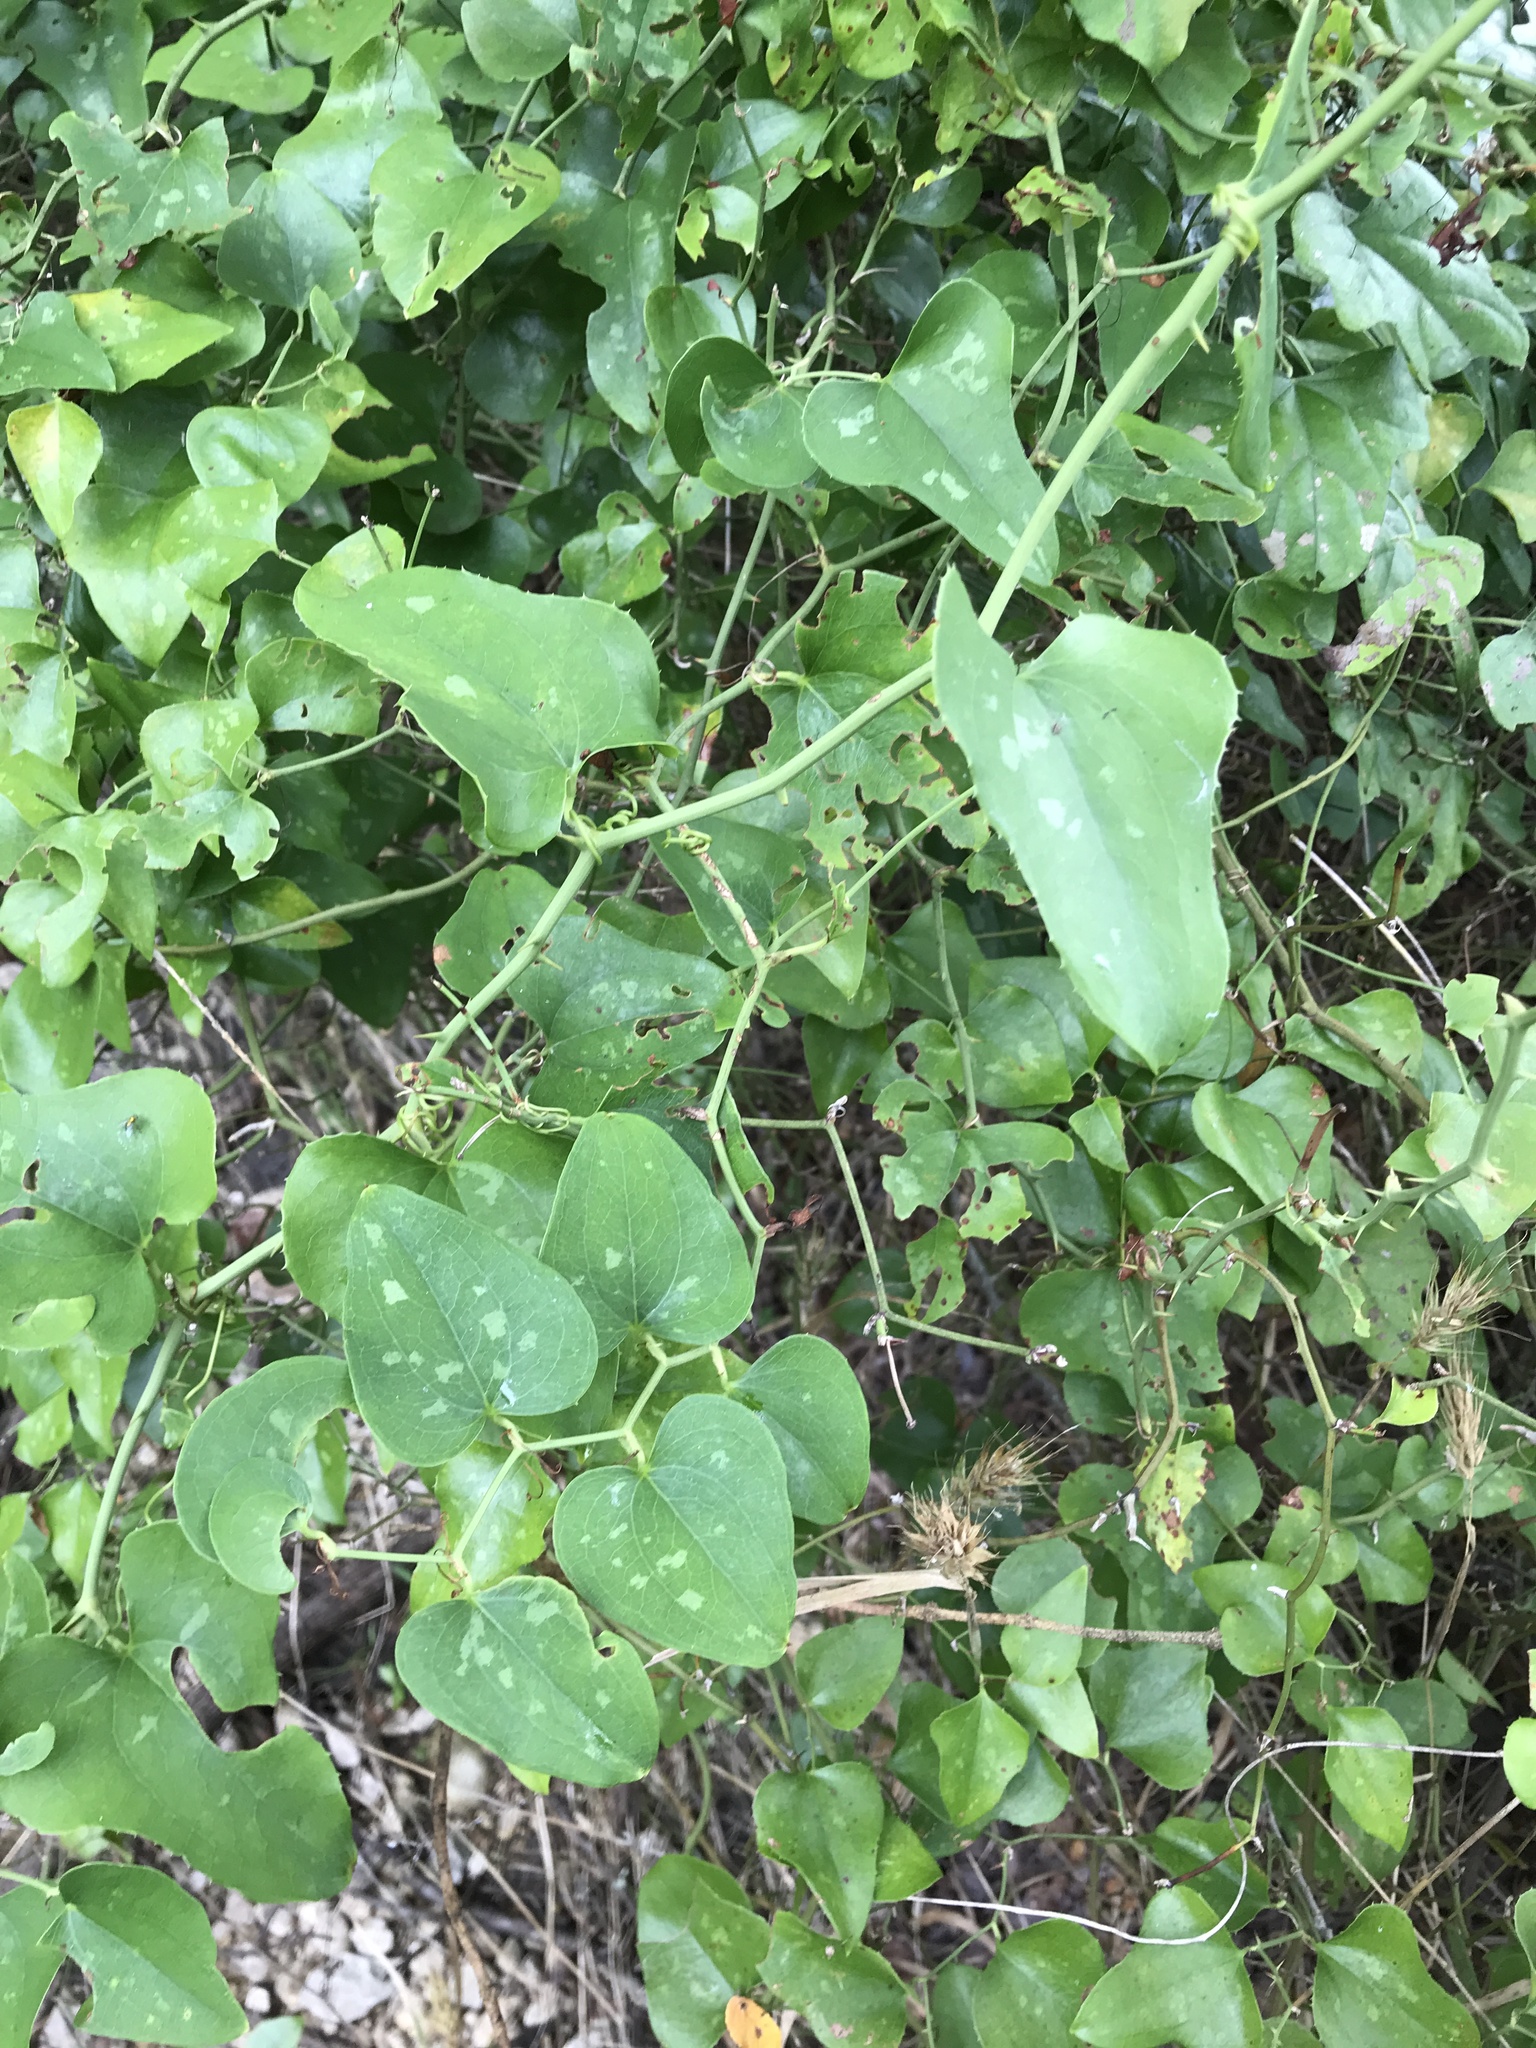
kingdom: Plantae
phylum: Tracheophyta
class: Liliopsida
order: Liliales
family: Smilacaceae
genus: Smilax
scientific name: Smilax bona-nox
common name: Catbrier
